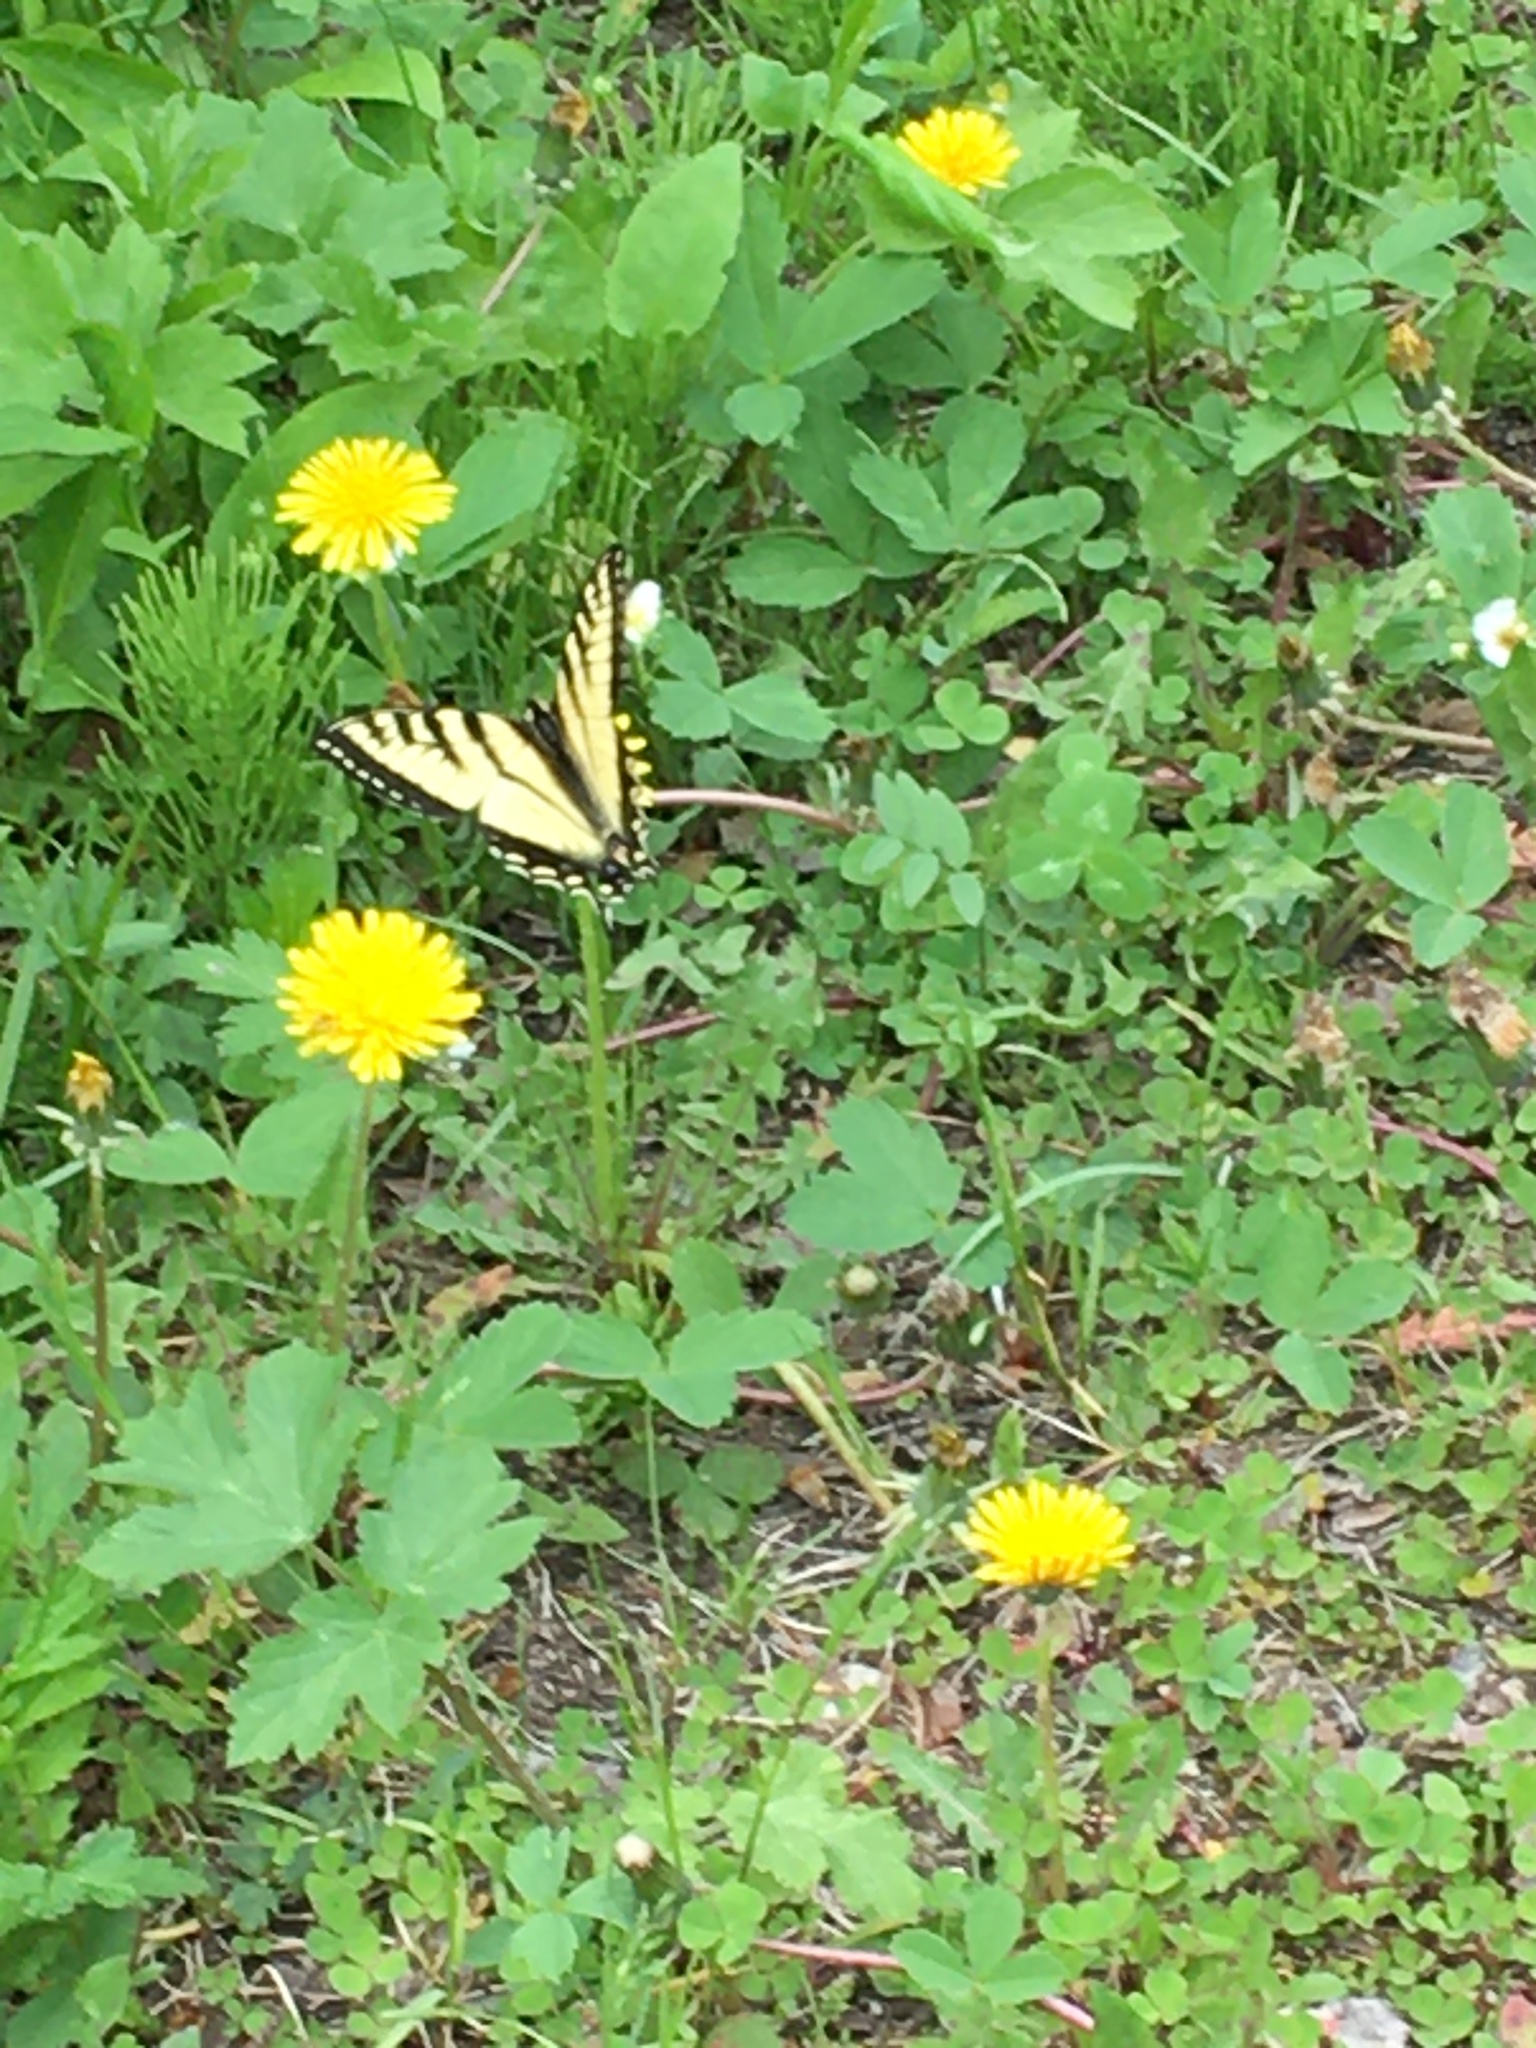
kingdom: Animalia
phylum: Arthropoda
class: Insecta
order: Lepidoptera
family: Papilionidae
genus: Papilio
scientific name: Papilio canadensis
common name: Canadian tiger swallowtail
